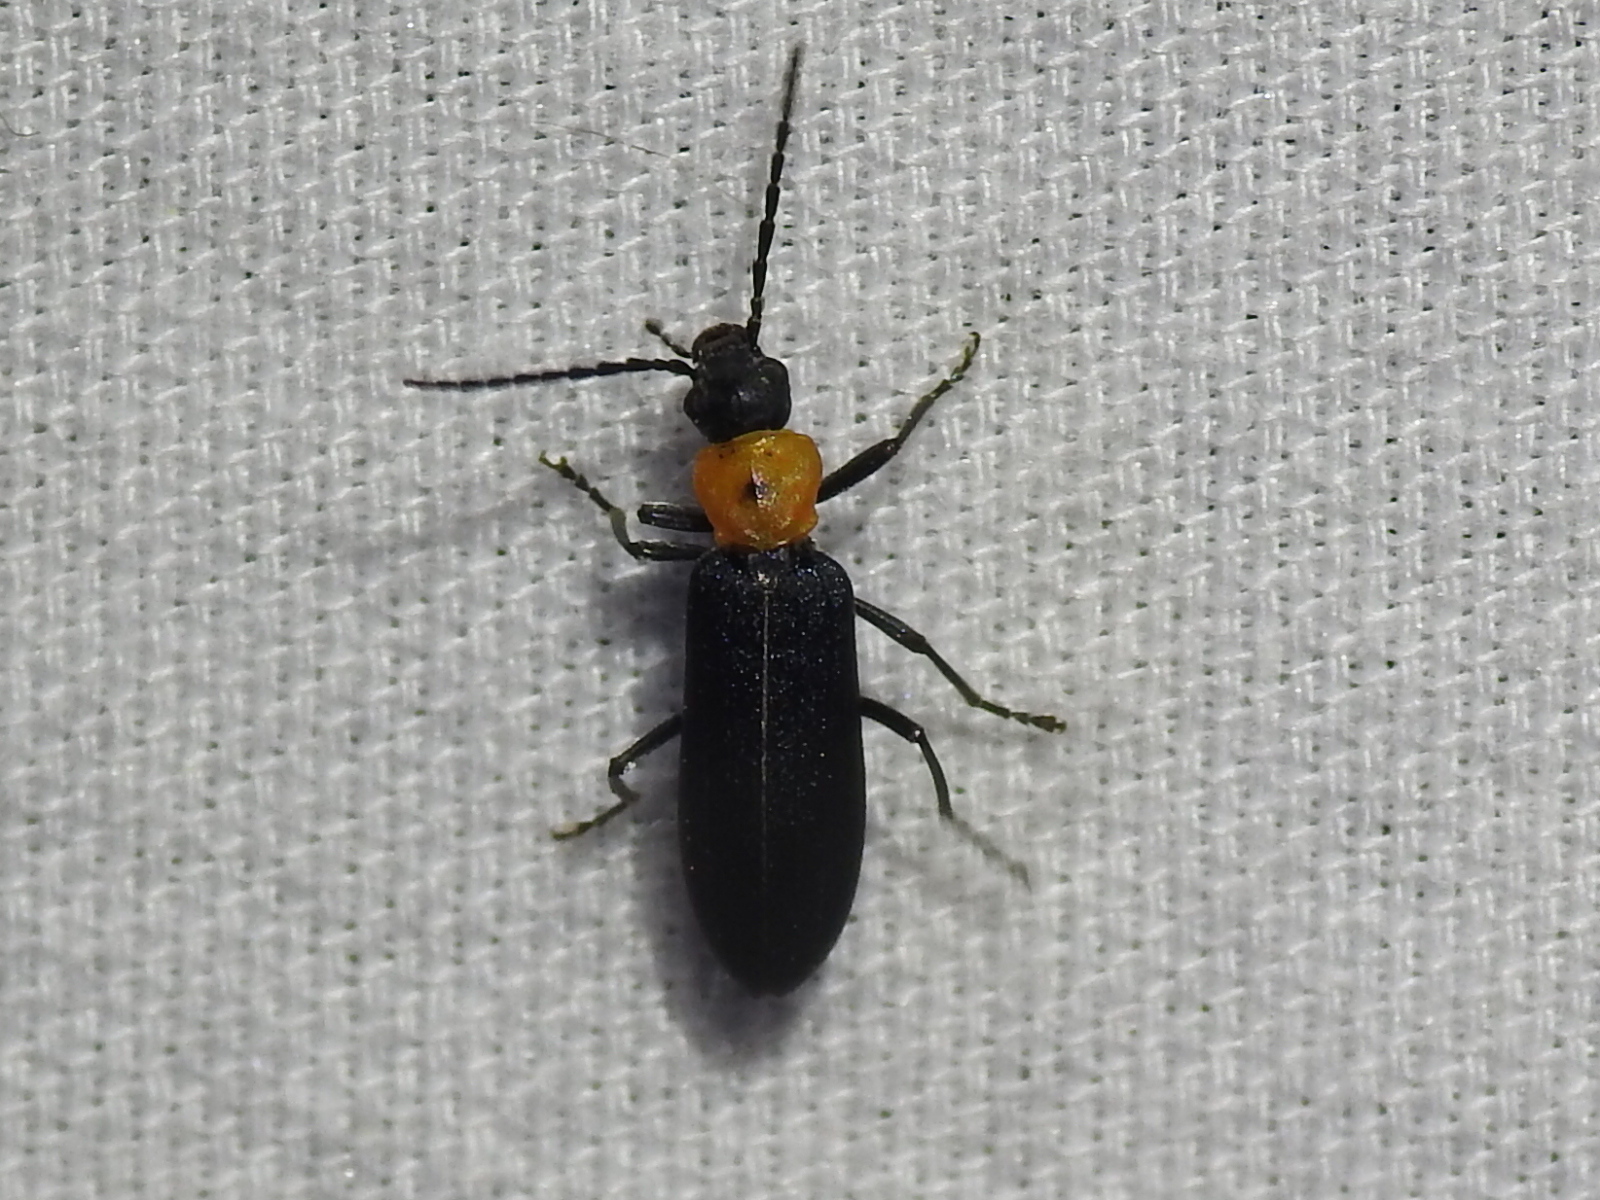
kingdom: Animalia
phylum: Arthropoda
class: Insecta
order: Coleoptera
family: Oedemeridae
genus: Ischnomera
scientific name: Ischnomera
